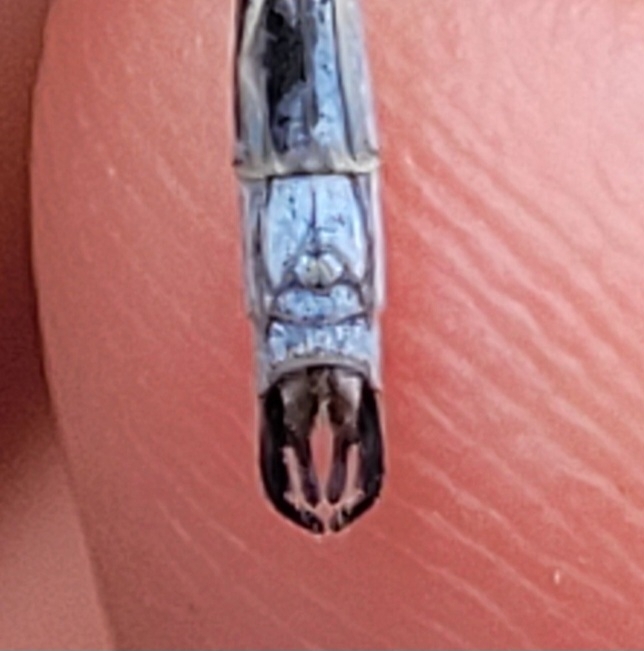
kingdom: Animalia
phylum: Arthropoda
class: Insecta
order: Odonata
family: Lestidae
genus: Lestes
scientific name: Lestes disjunctus
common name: Northern spreadwing
